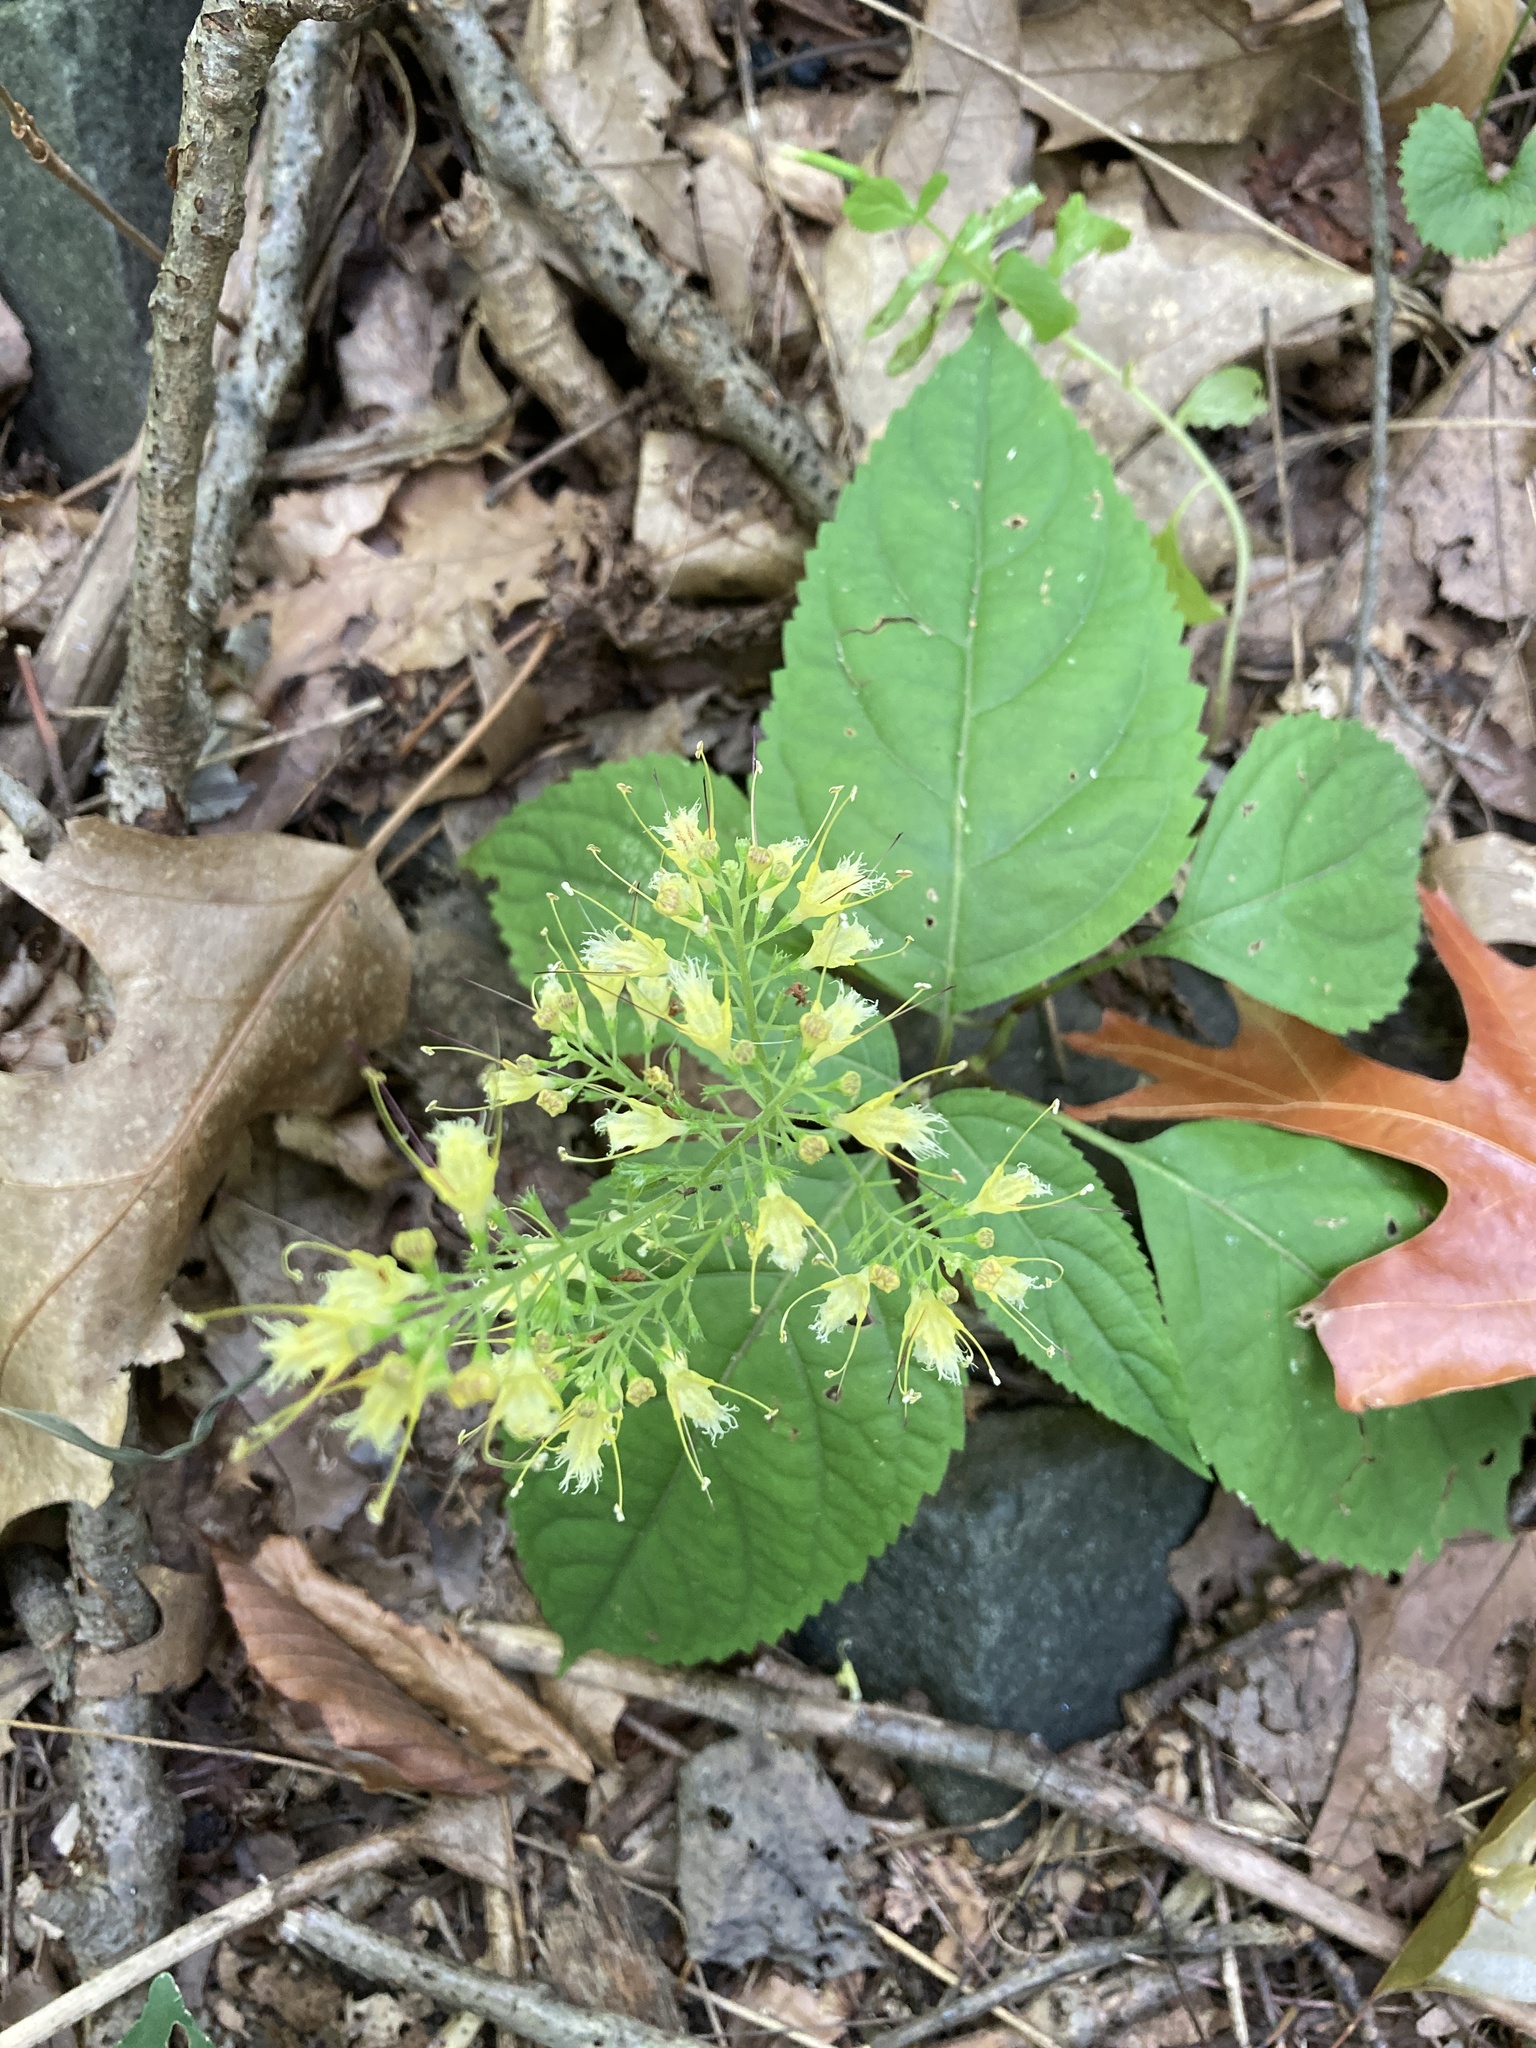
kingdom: Plantae
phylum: Tracheophyta
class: Magnoliopsida
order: Lamiales
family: Lamiaceae
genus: Collinsonia
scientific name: Collinsonia canadensis
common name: Northern horsebalm
